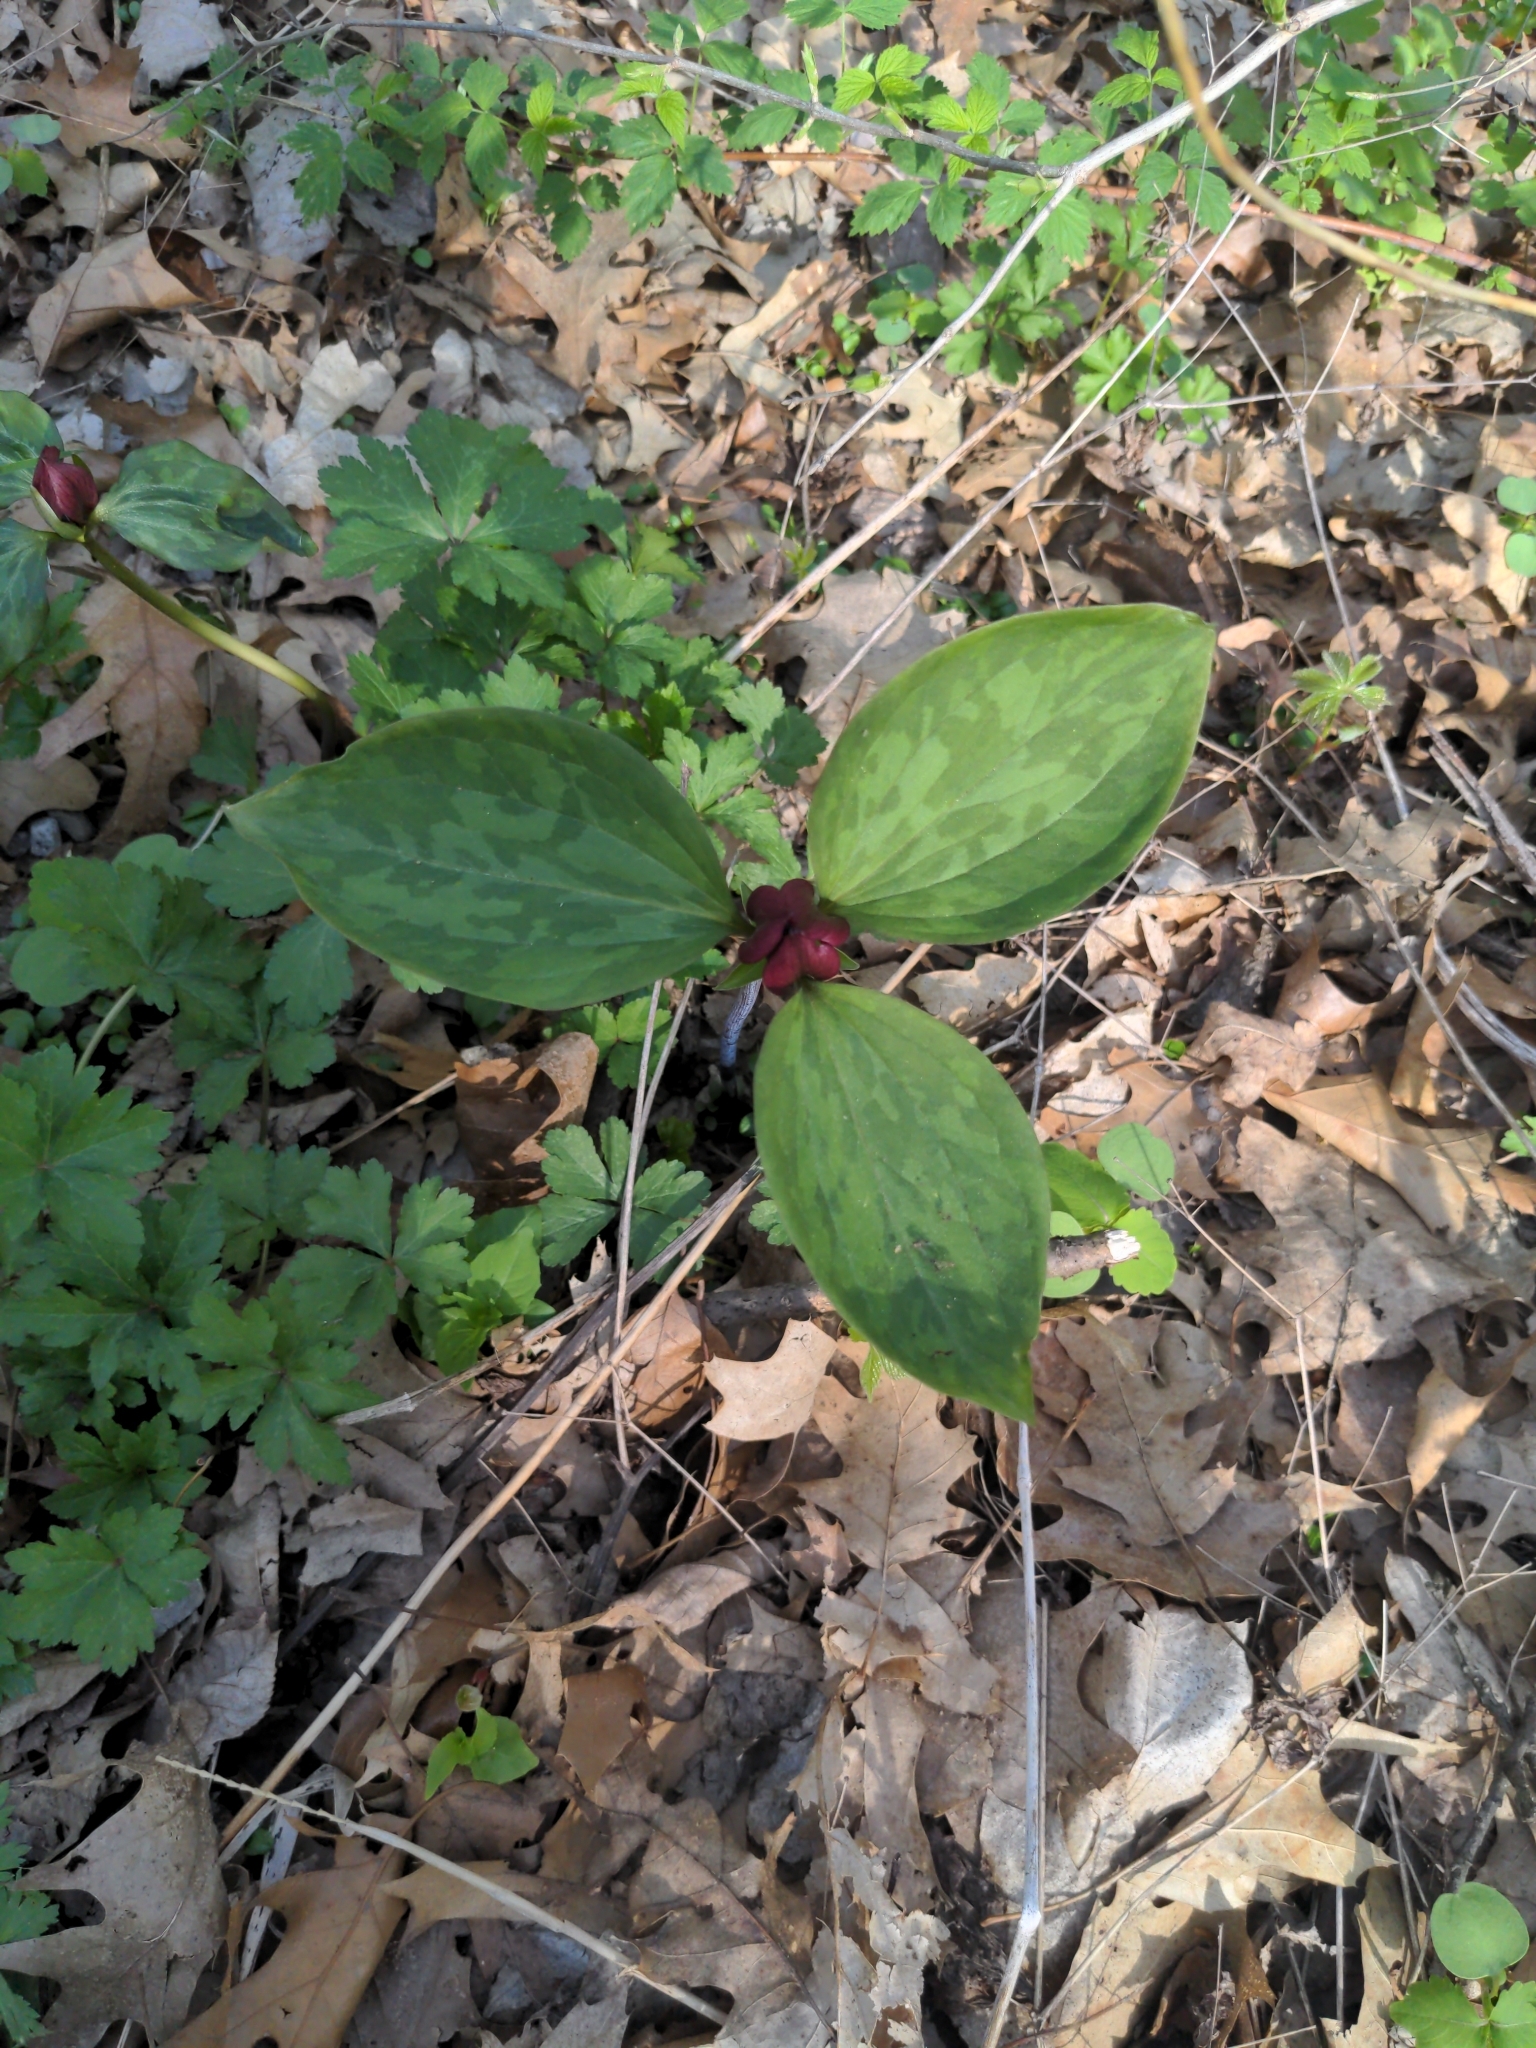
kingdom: Plantae
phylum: Tracheophyta
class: Liliopsida
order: Liliales
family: Melanthiaceae
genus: Trillium
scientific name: Trillium recurvatum
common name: Bloody butcher
